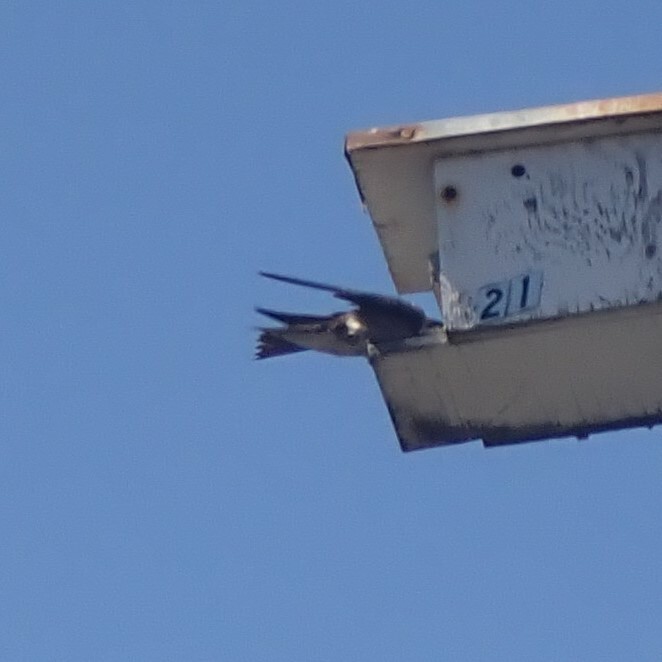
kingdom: Animalia
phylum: Chordata
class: Aves
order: Passeriformes
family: Hirundinidae
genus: Progne
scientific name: Progne subis
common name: Purple martin
